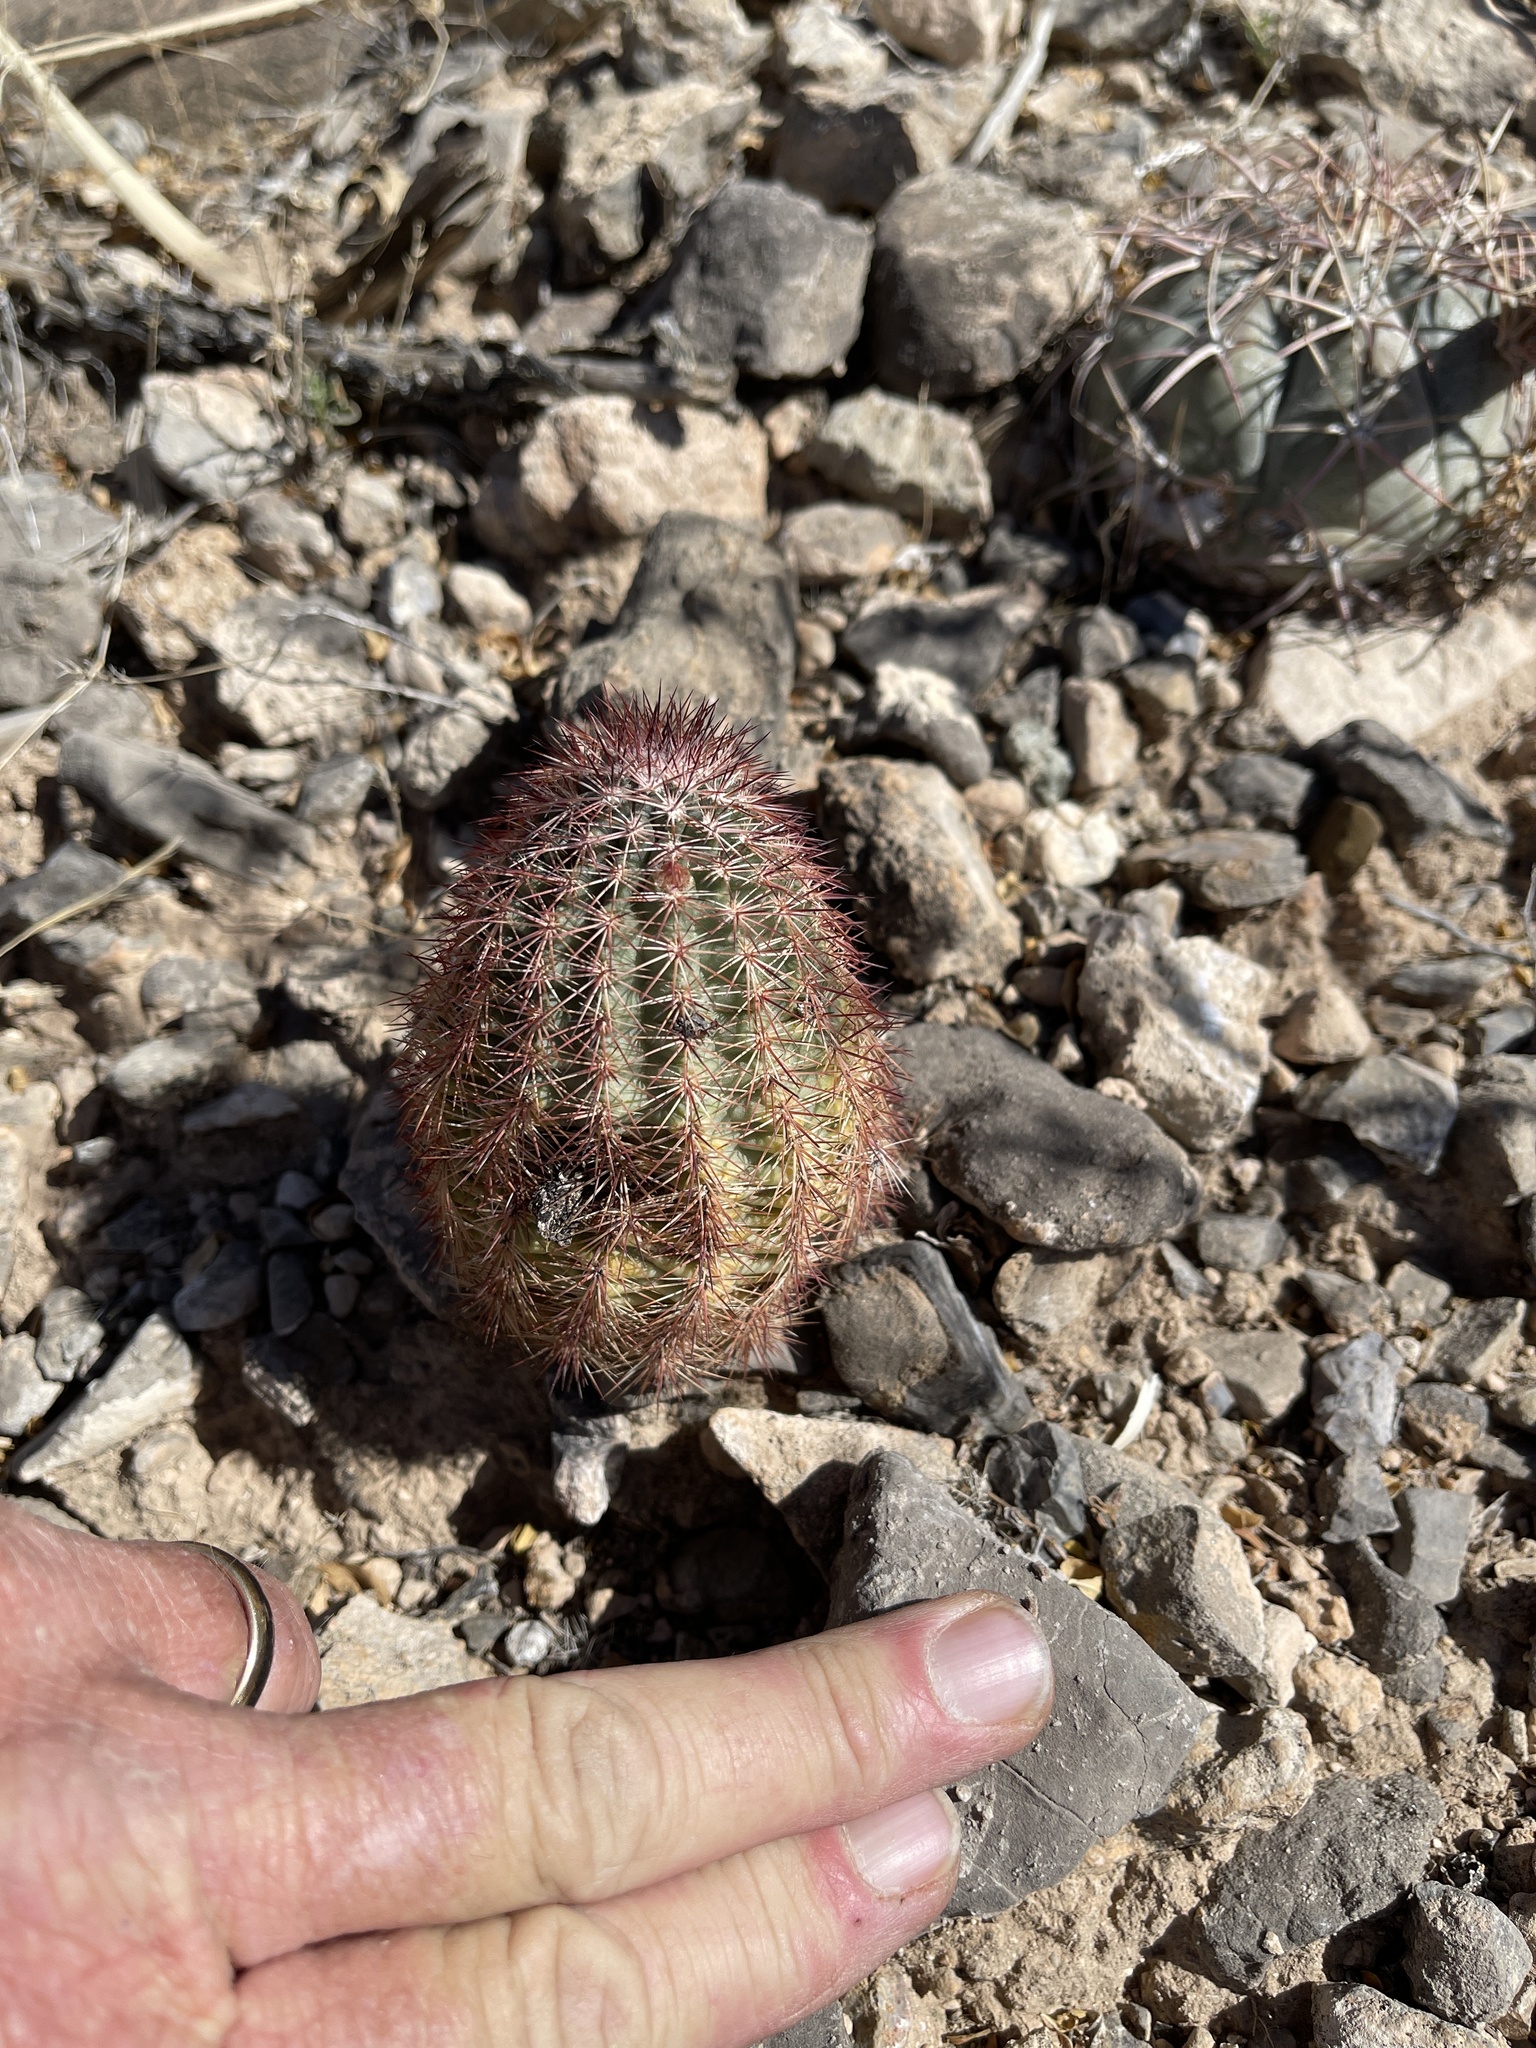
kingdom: Plantae
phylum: Tracheophyta
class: Magnoliopsida
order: Caryophyllales
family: Cactaceae
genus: Echinocereus
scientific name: Echinocereus roetteri
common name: Lloyd's hedgehog cactus
